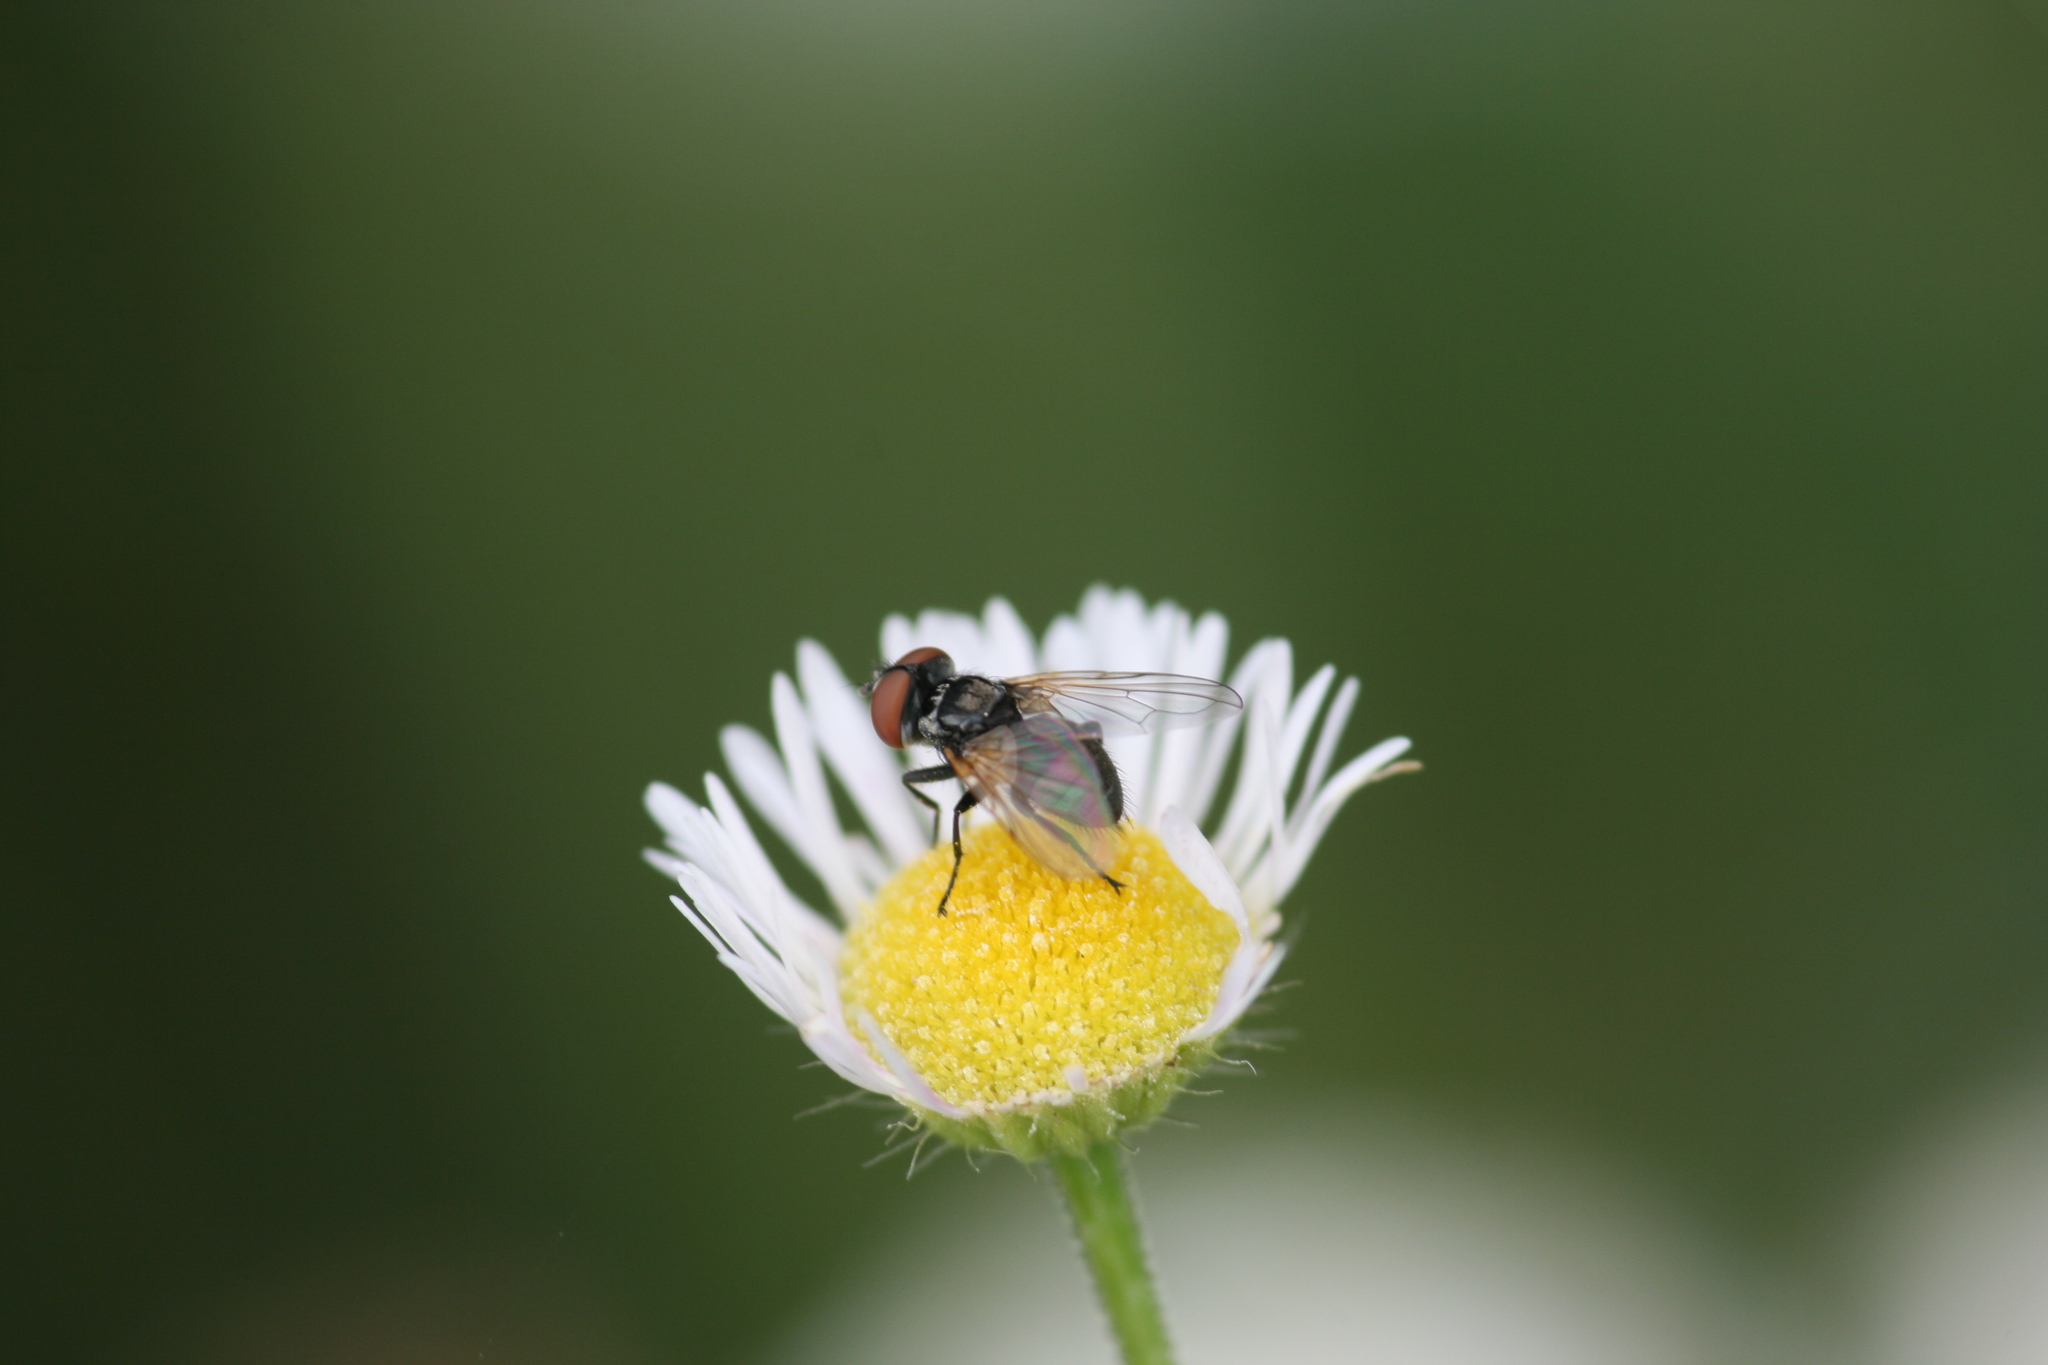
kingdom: Animalia
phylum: Arthropoda
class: Insecta
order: Diptera
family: Tachinidae
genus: Phasia
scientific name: Phasia obesa
